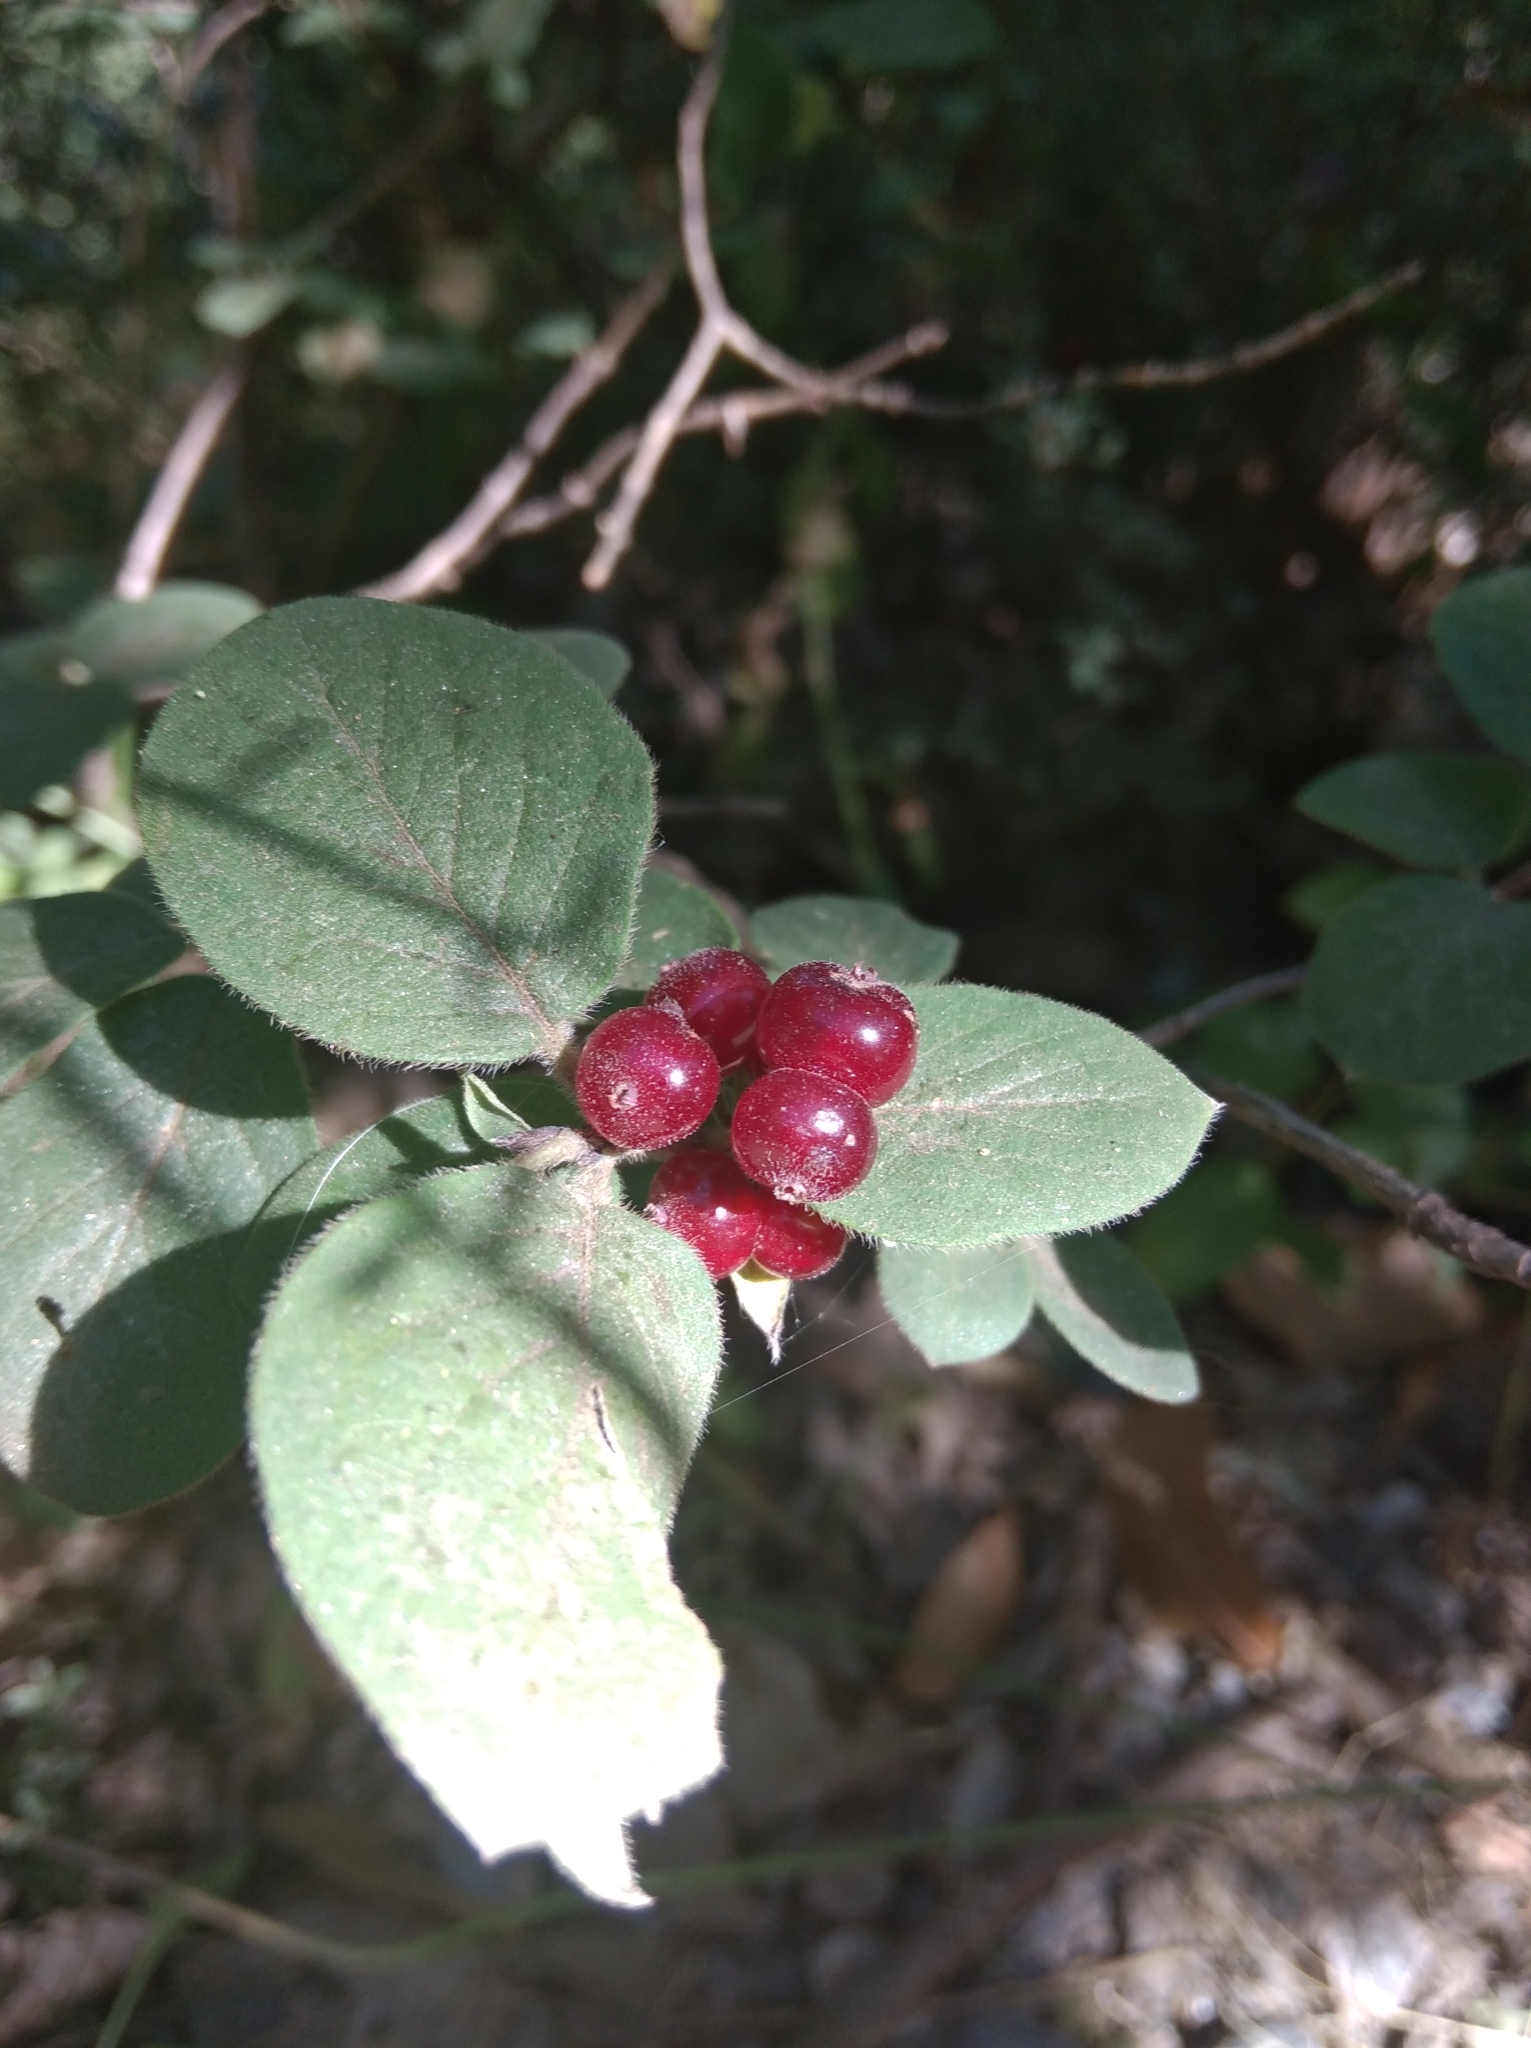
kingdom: Plantae
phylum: Tracheophyta
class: Magnoliopsida
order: Dipsacales
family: Caprifoliaceae
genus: Lonicera
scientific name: Lonicera xylosteum
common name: Fly honeysuckle
